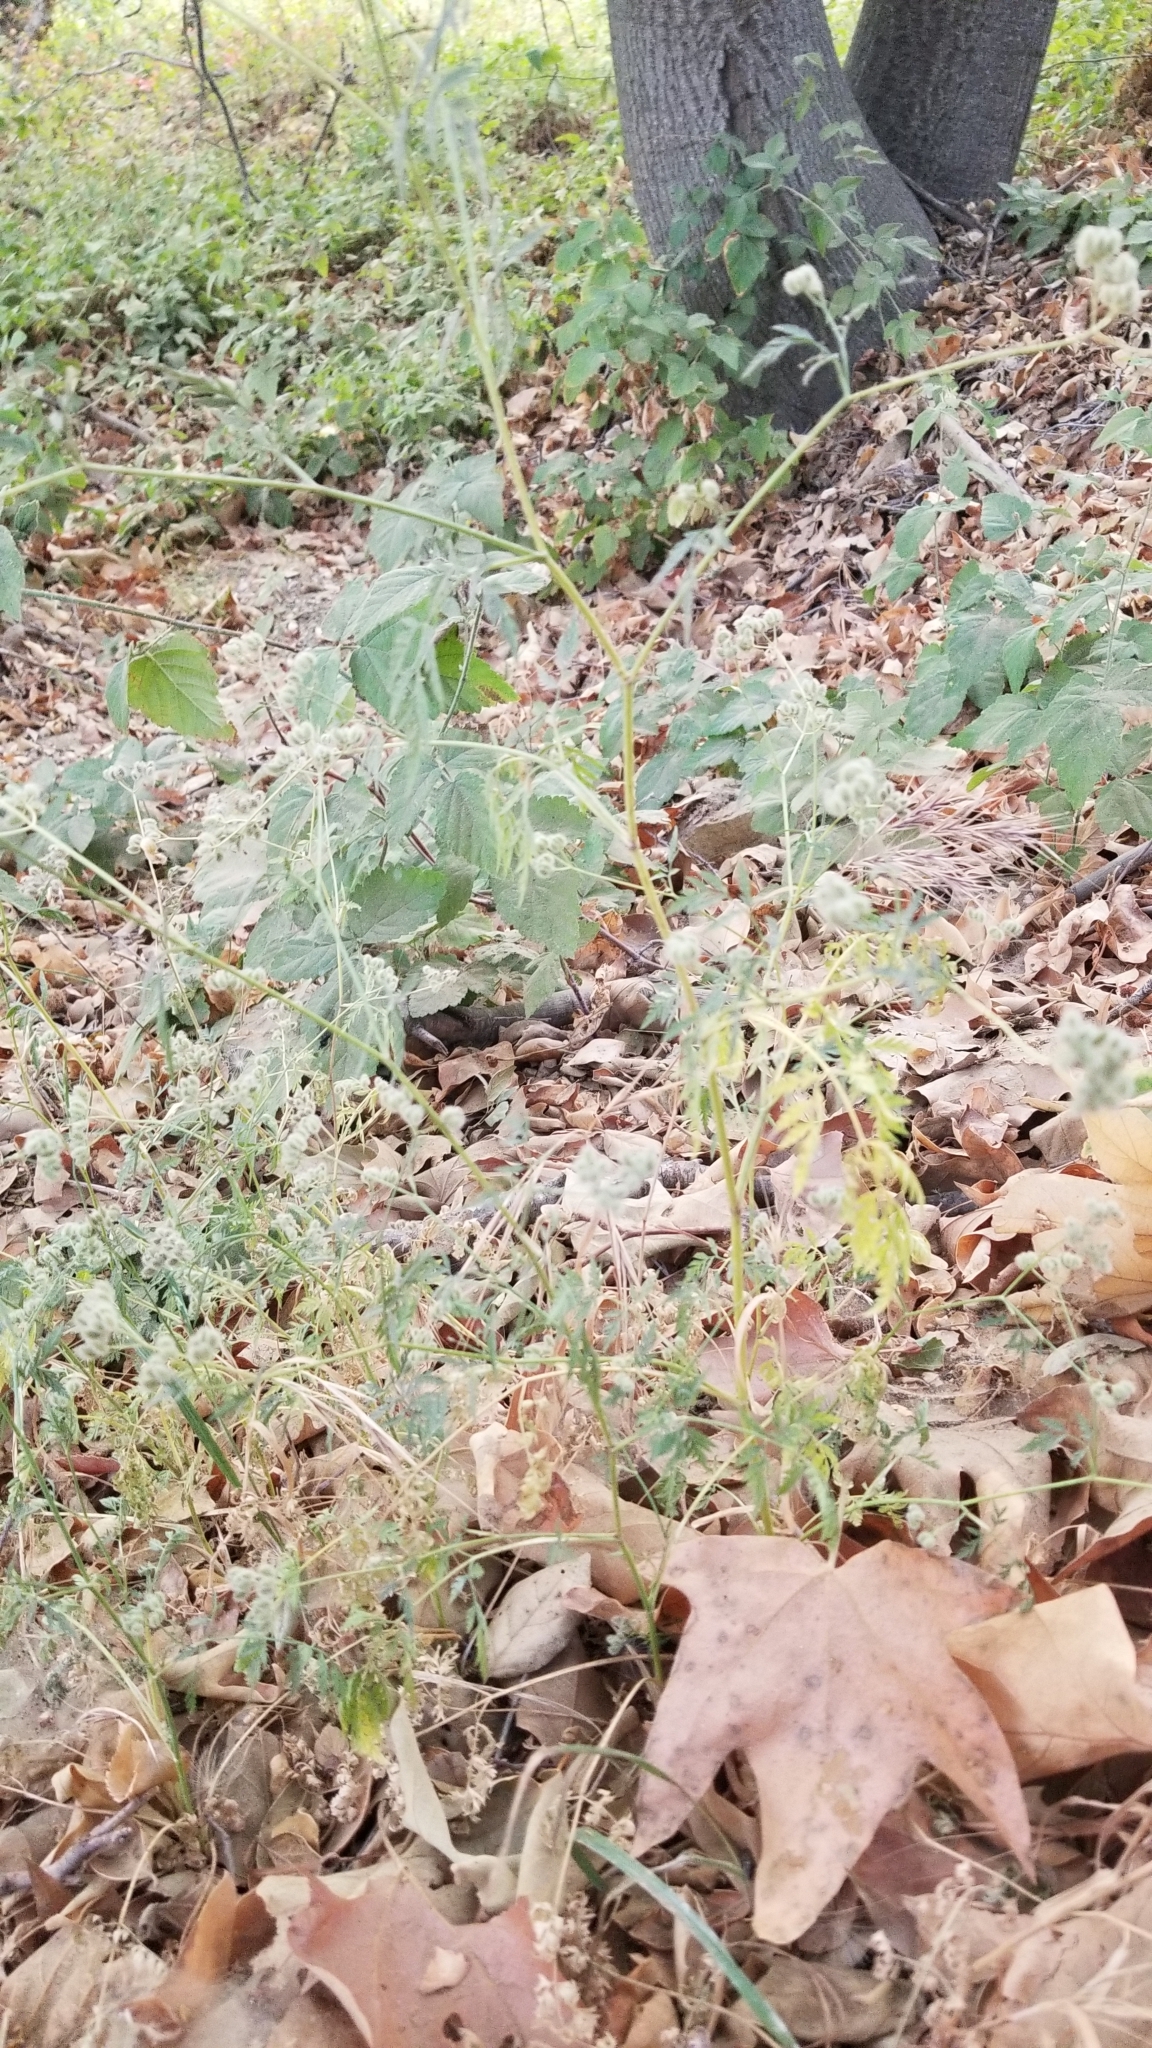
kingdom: Plantae
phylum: Tracheophyta
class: Magnoliopsida
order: Apiales
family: Apiaceae
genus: Torilis
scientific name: Torilis arvensis
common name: Spreading hedge-parsley
